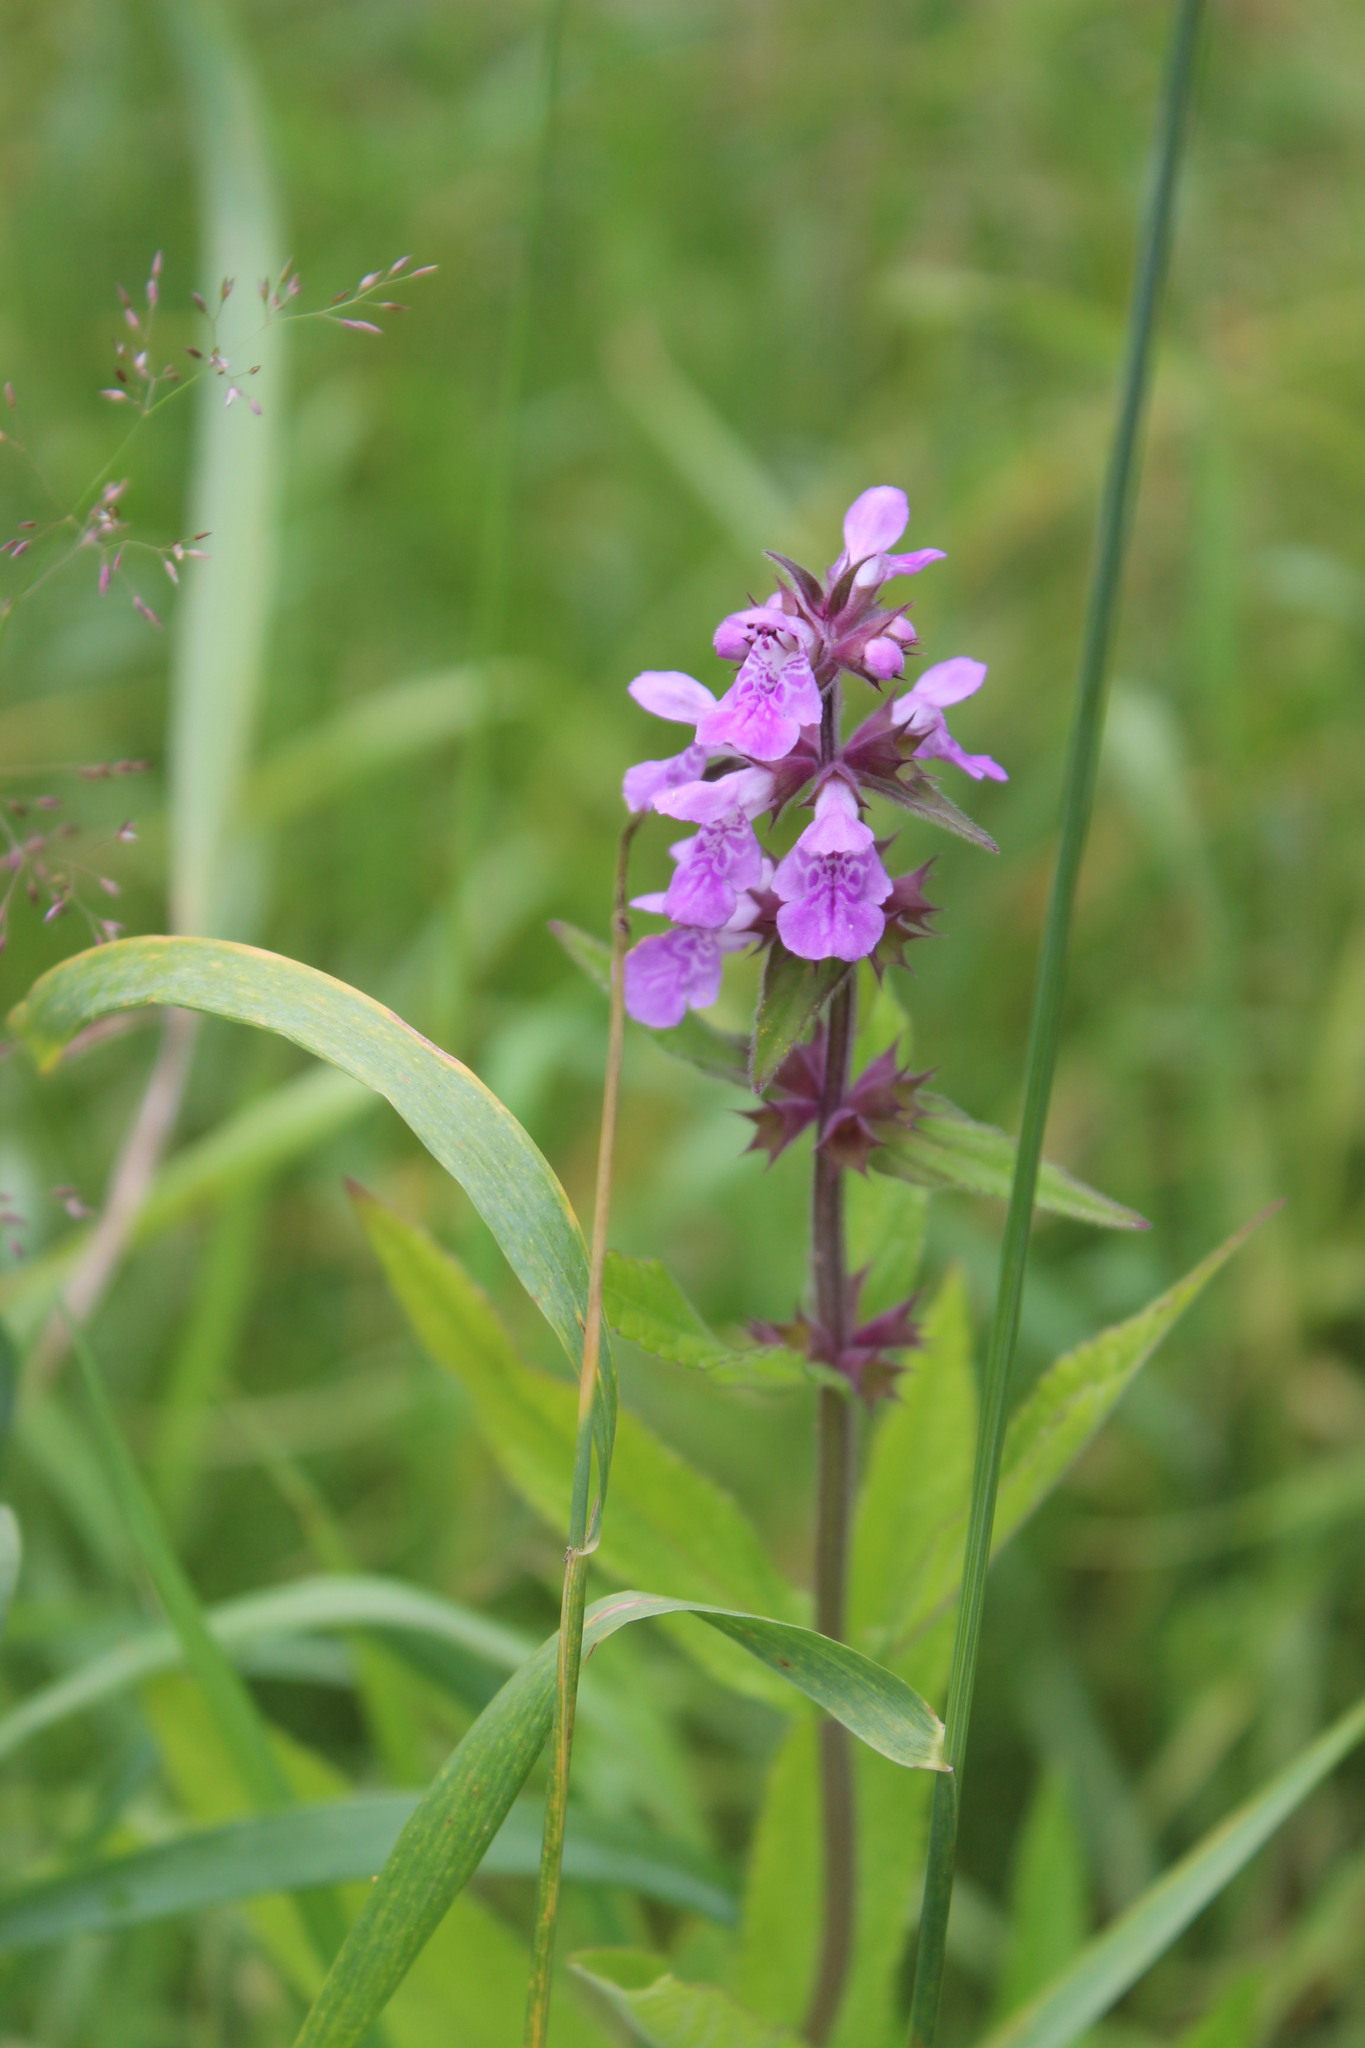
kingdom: Plantae
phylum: Tracheophyta
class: Magnoliopsida
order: Lamiales
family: Lamiaceae
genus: Stachys
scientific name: Stachys palustris
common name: Marsh woundwort
